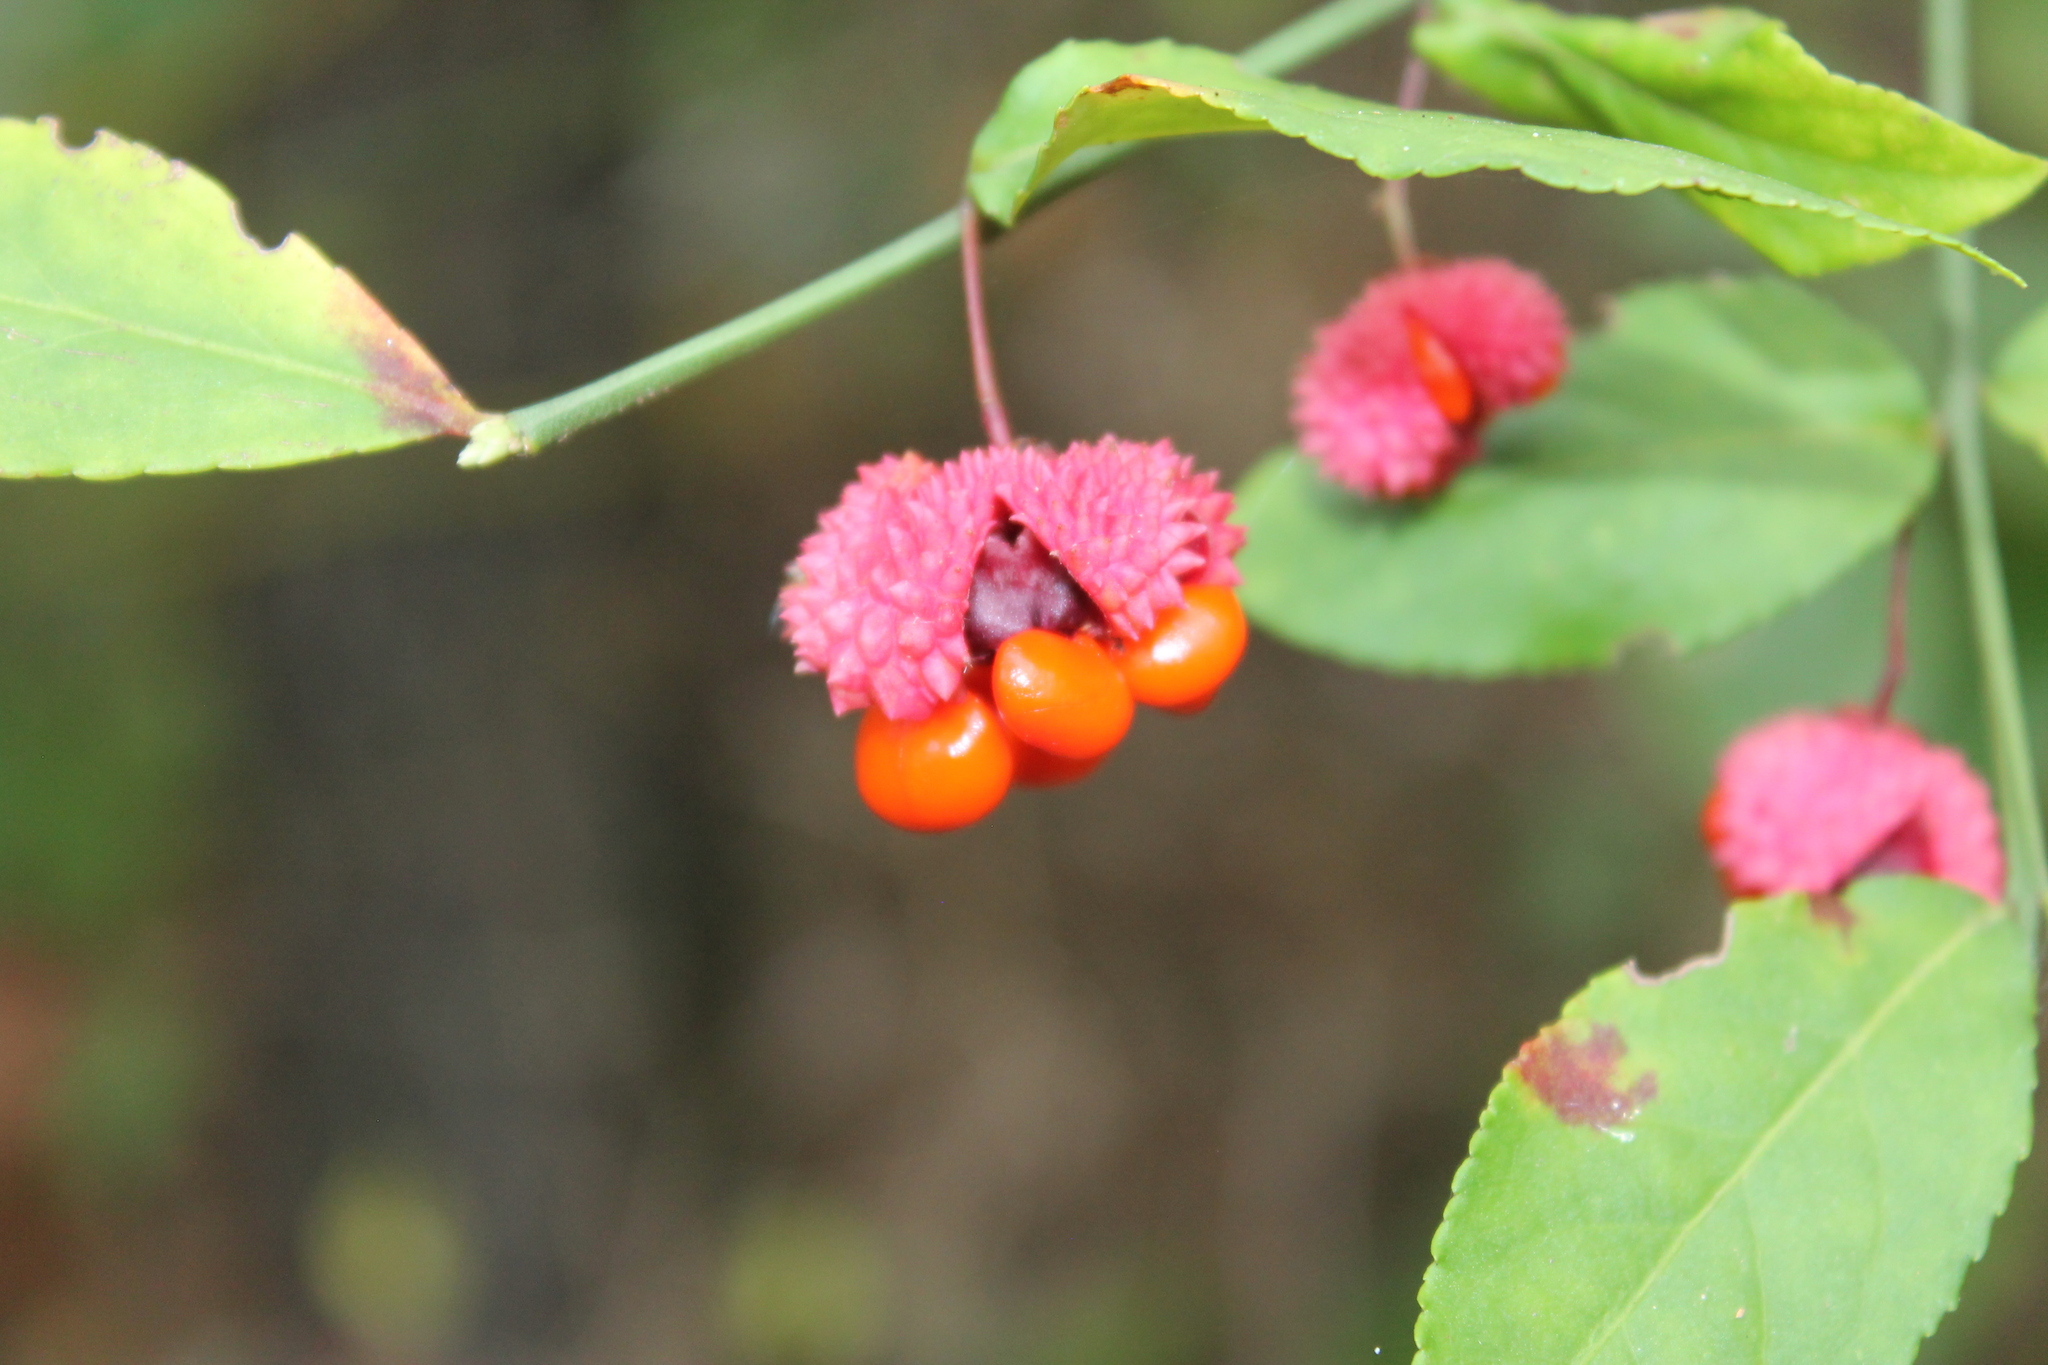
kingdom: Plantae
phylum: Tracheophyta
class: Magnoliopsida
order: Celastrales
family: Celastraceae
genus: Euonymus
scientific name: Euonymus americanus
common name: Bursting-heart
